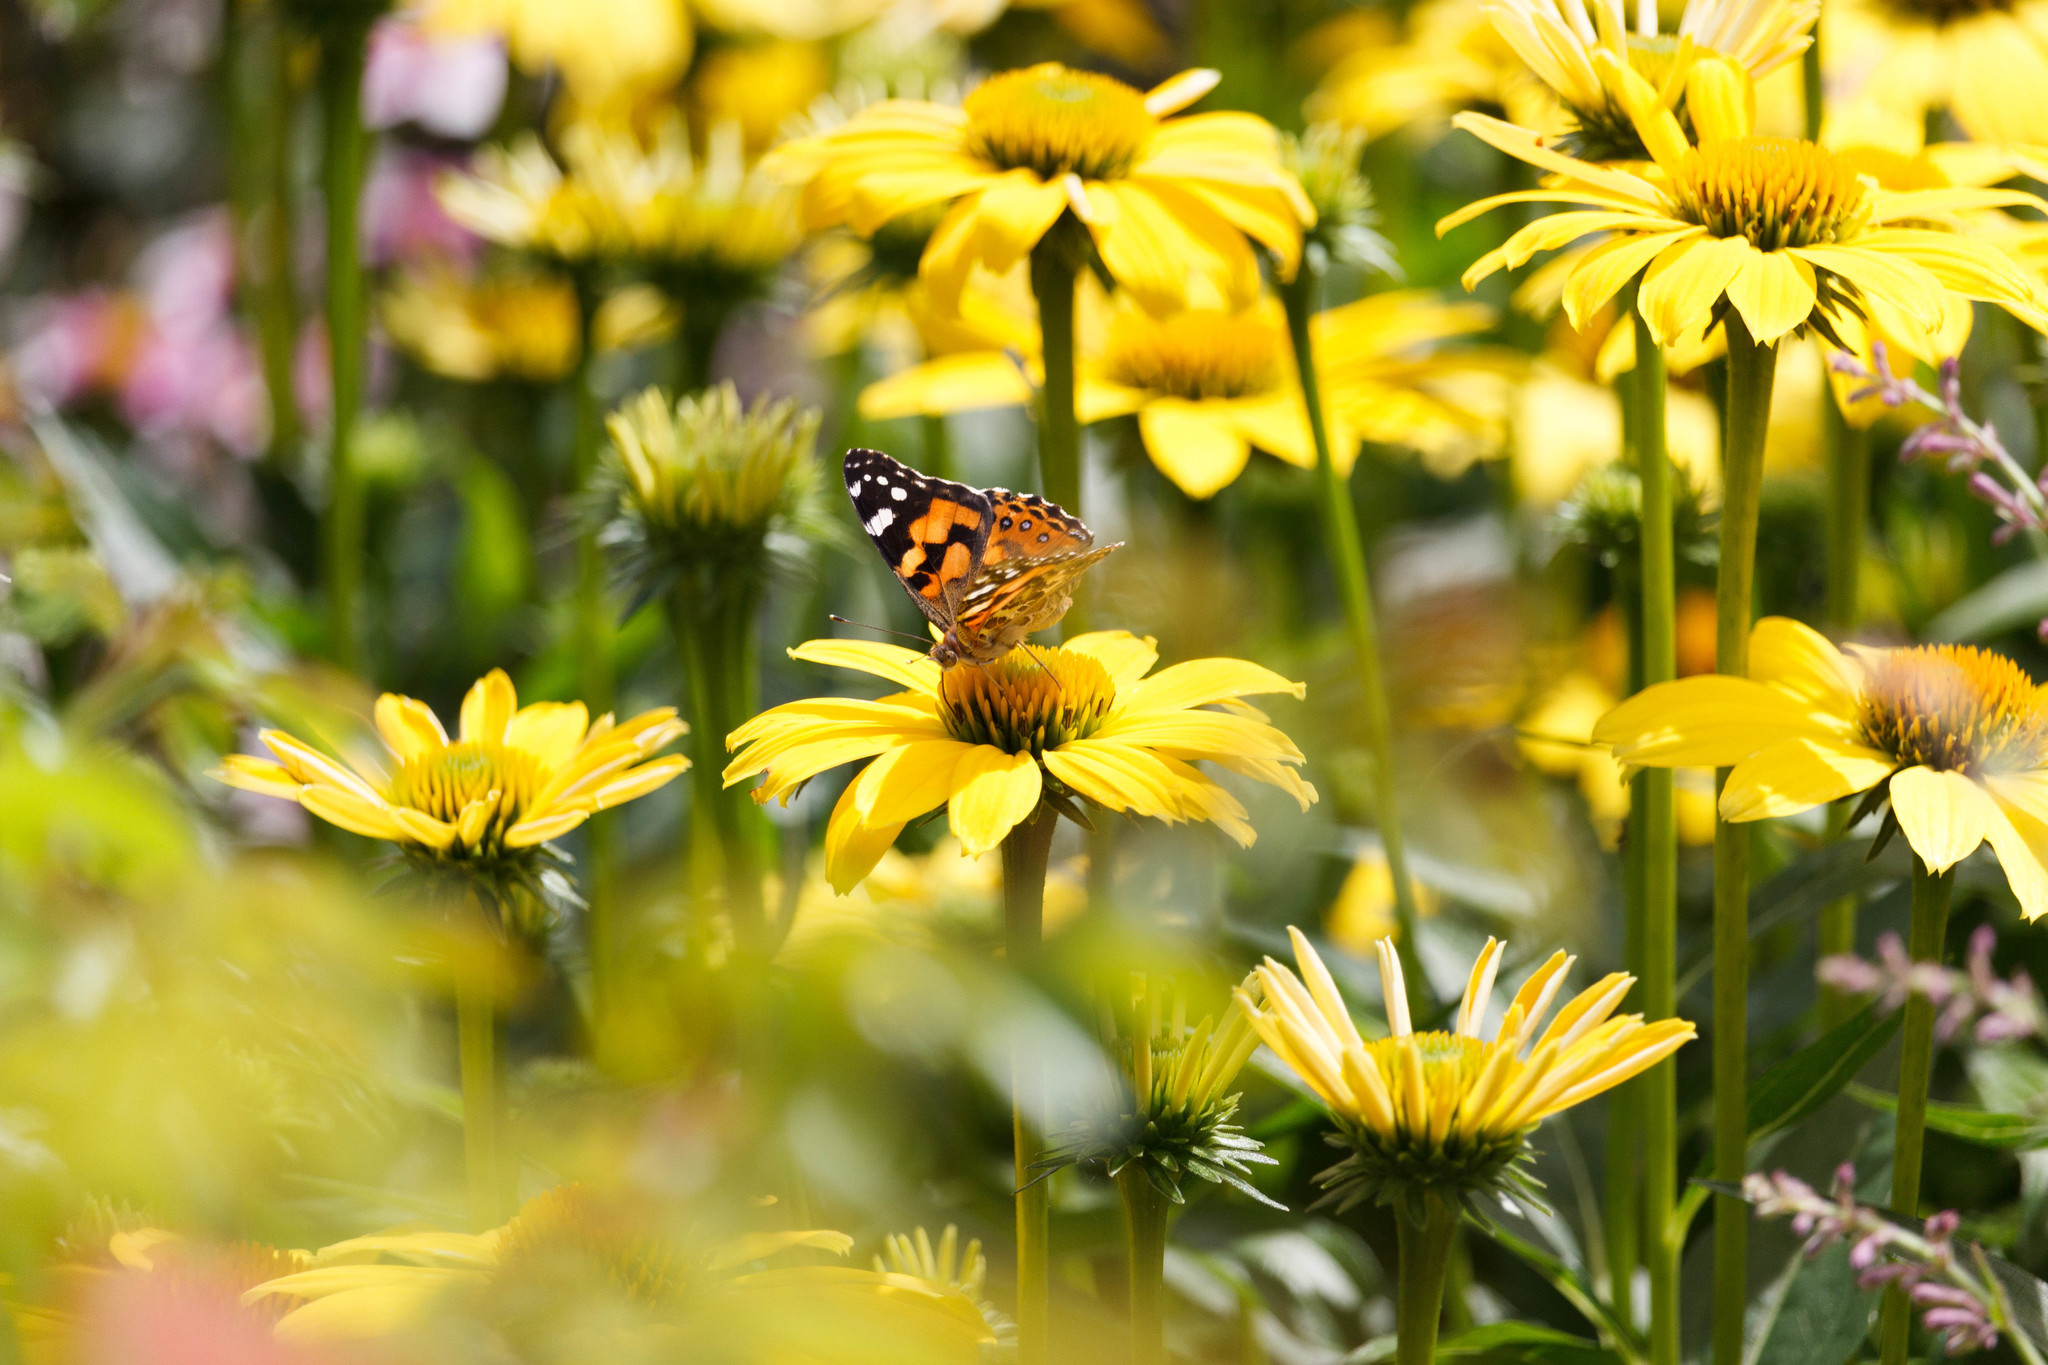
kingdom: Animalia
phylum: Arthropoda
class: Insecta
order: Lepidoptera
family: Nymphalidae
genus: Vanessa
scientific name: Vanessa kershawi
